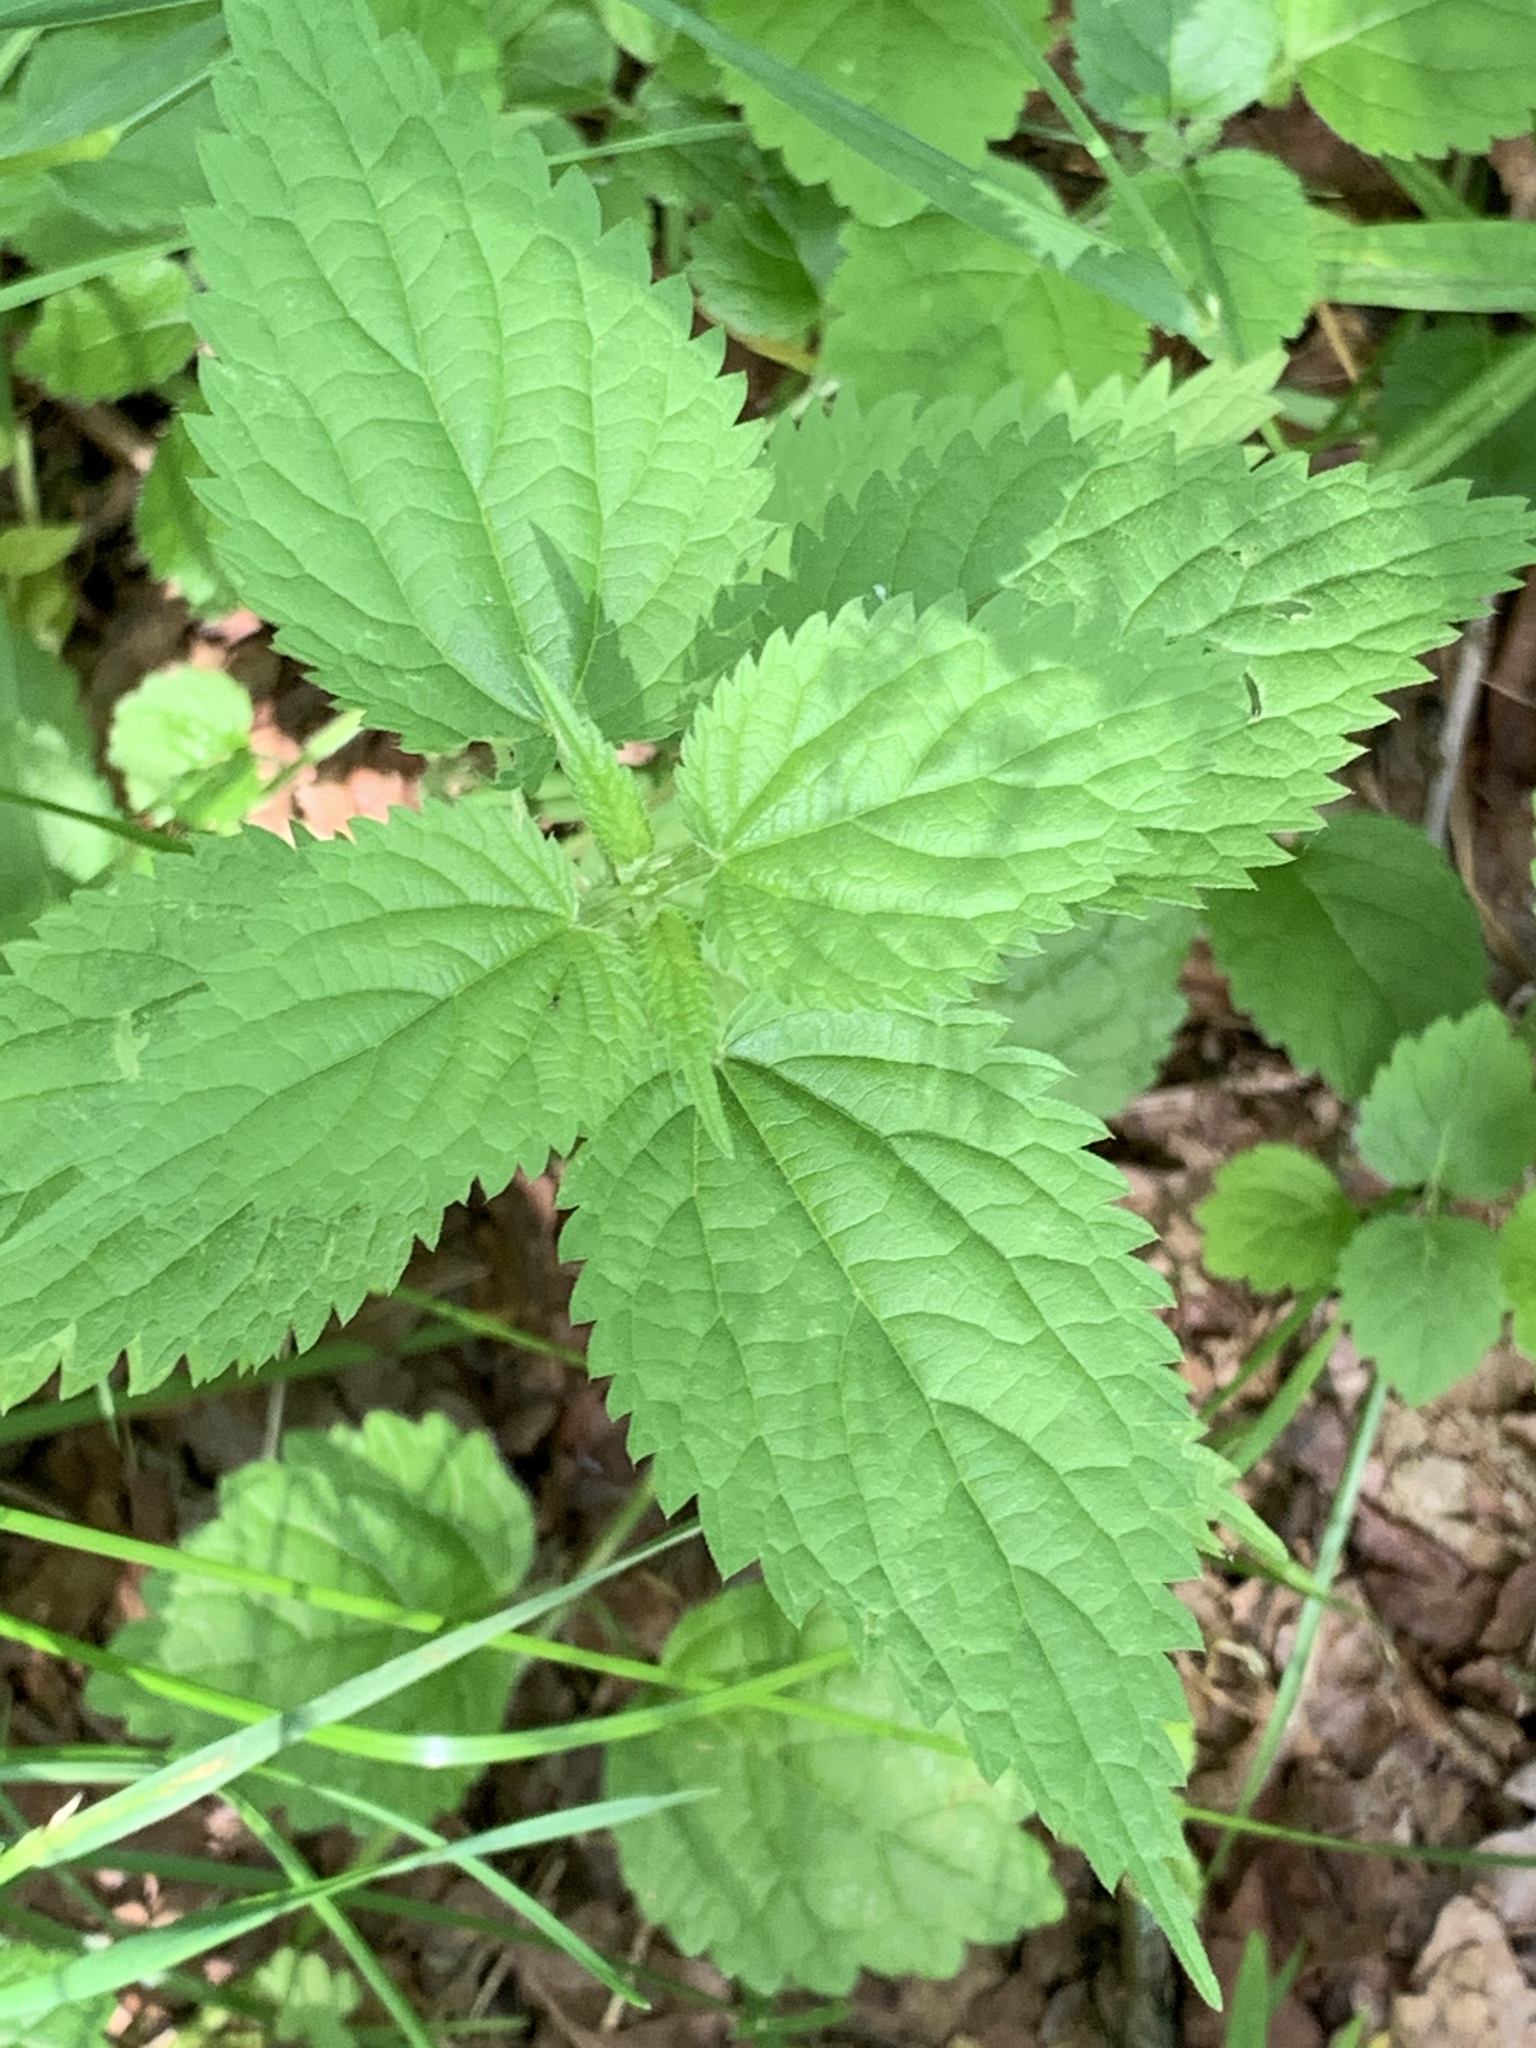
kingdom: Plantae
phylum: Tracheophyta
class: Magnoliopsida
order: Rosales
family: Urticaceae
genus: Urtica
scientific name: Urtica dioica
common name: Common nettle
